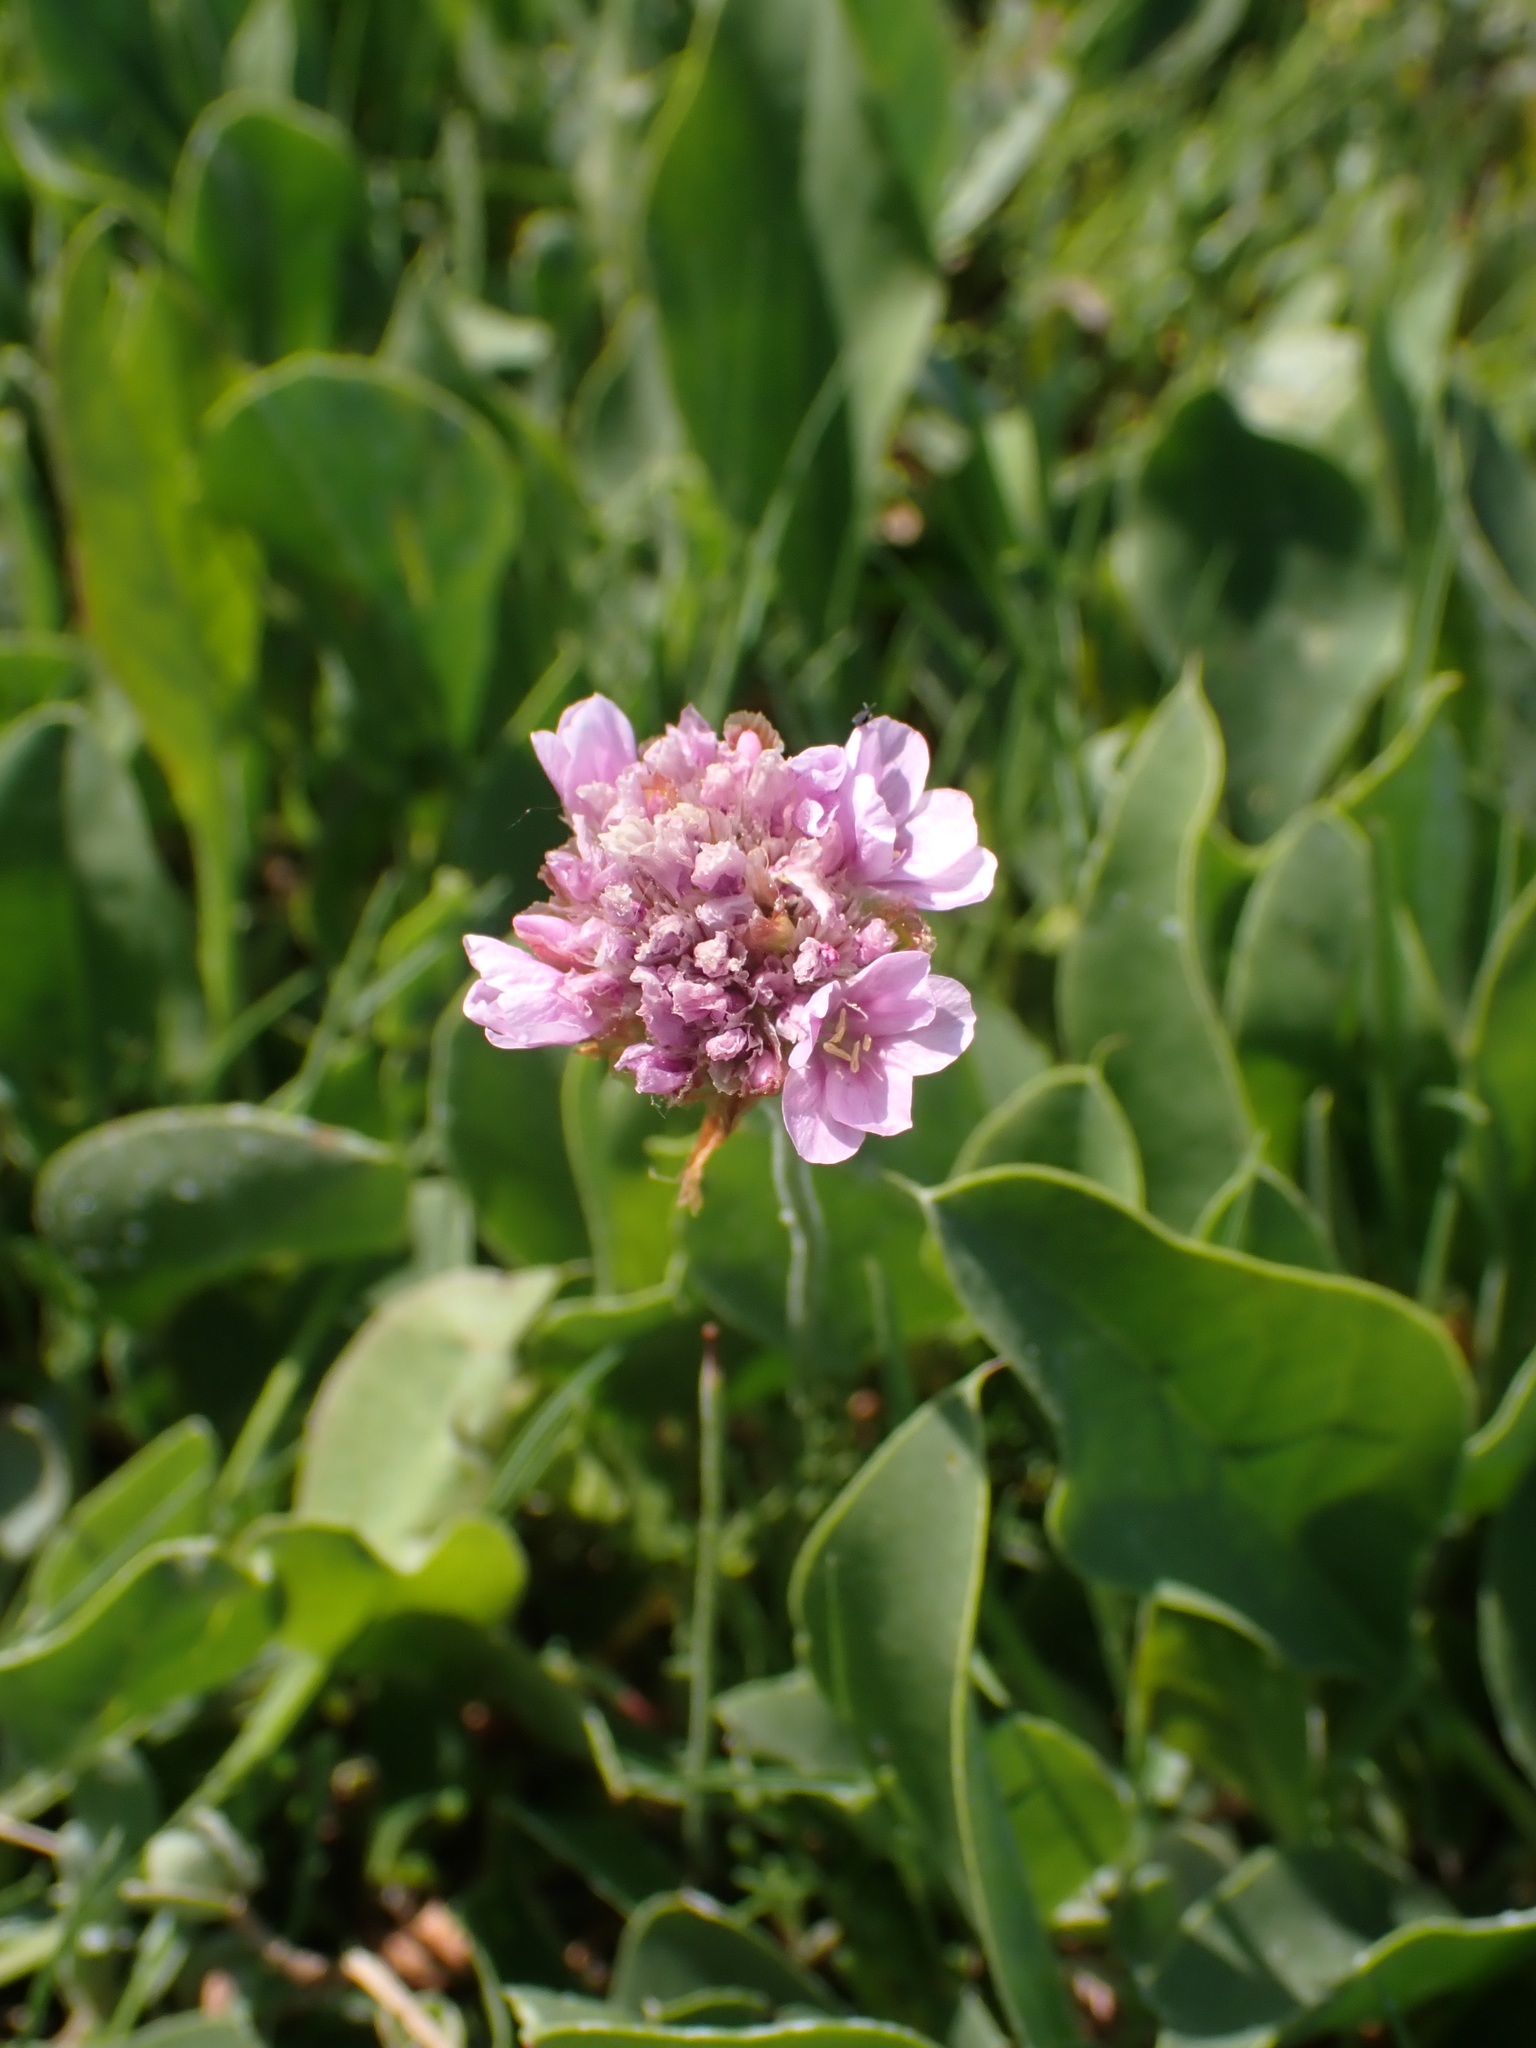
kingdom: Plantae
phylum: Tracheophyta
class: Magnoliopsida
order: Caryophyllales
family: Plumbaginaceae
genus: Armeria
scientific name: Armeria maritima
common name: Thrift
